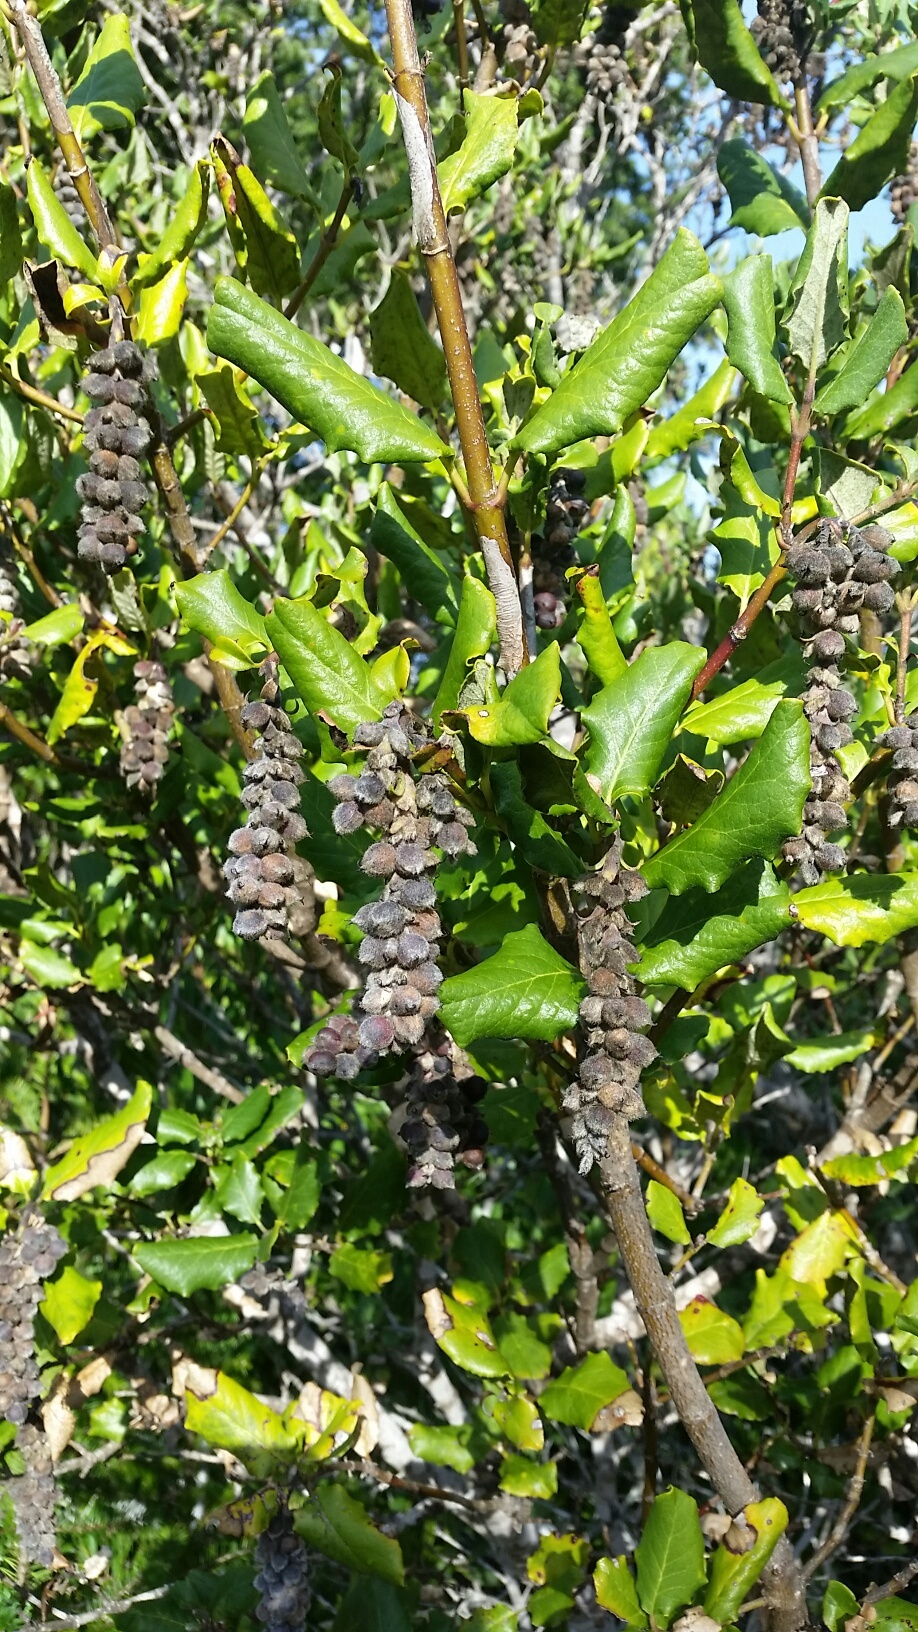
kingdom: Plantae
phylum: Tracheophyta
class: Magnoliopsida
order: Garryales
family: Garryaceae
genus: Garrya
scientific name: Garrya elliptica
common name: Silk-tassel
